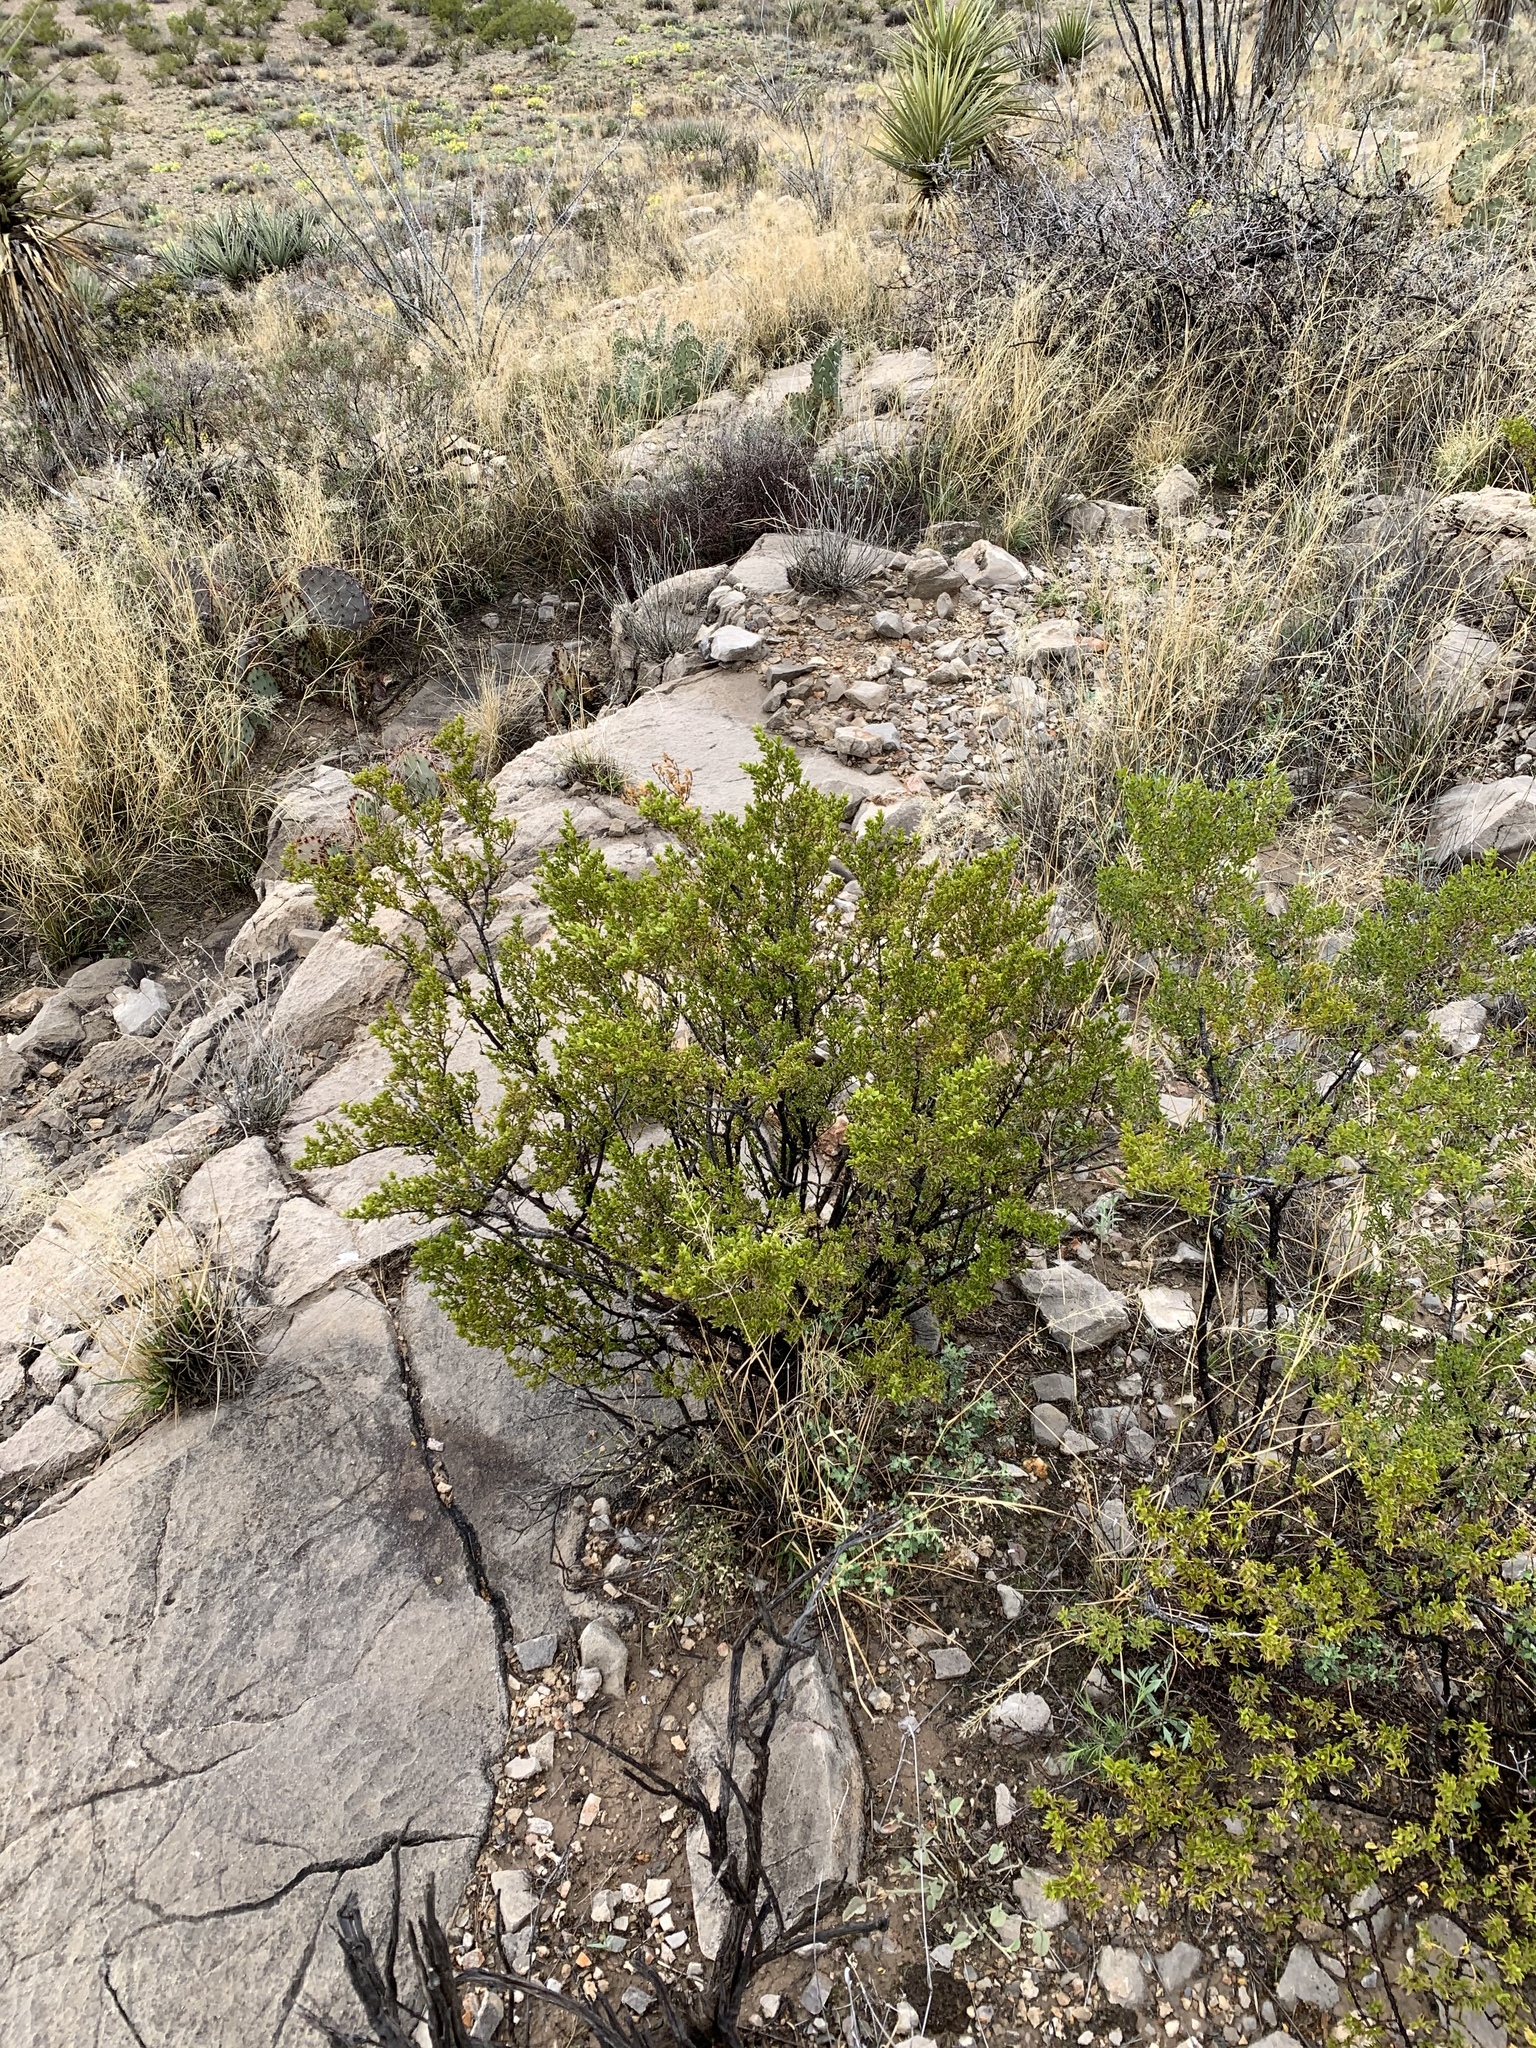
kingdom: Plantae
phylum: Tracheophyta
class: Magnoliopsida
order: Zygophyllales
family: Zygophyllaceae
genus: Larrea
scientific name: Larrea tridentata
